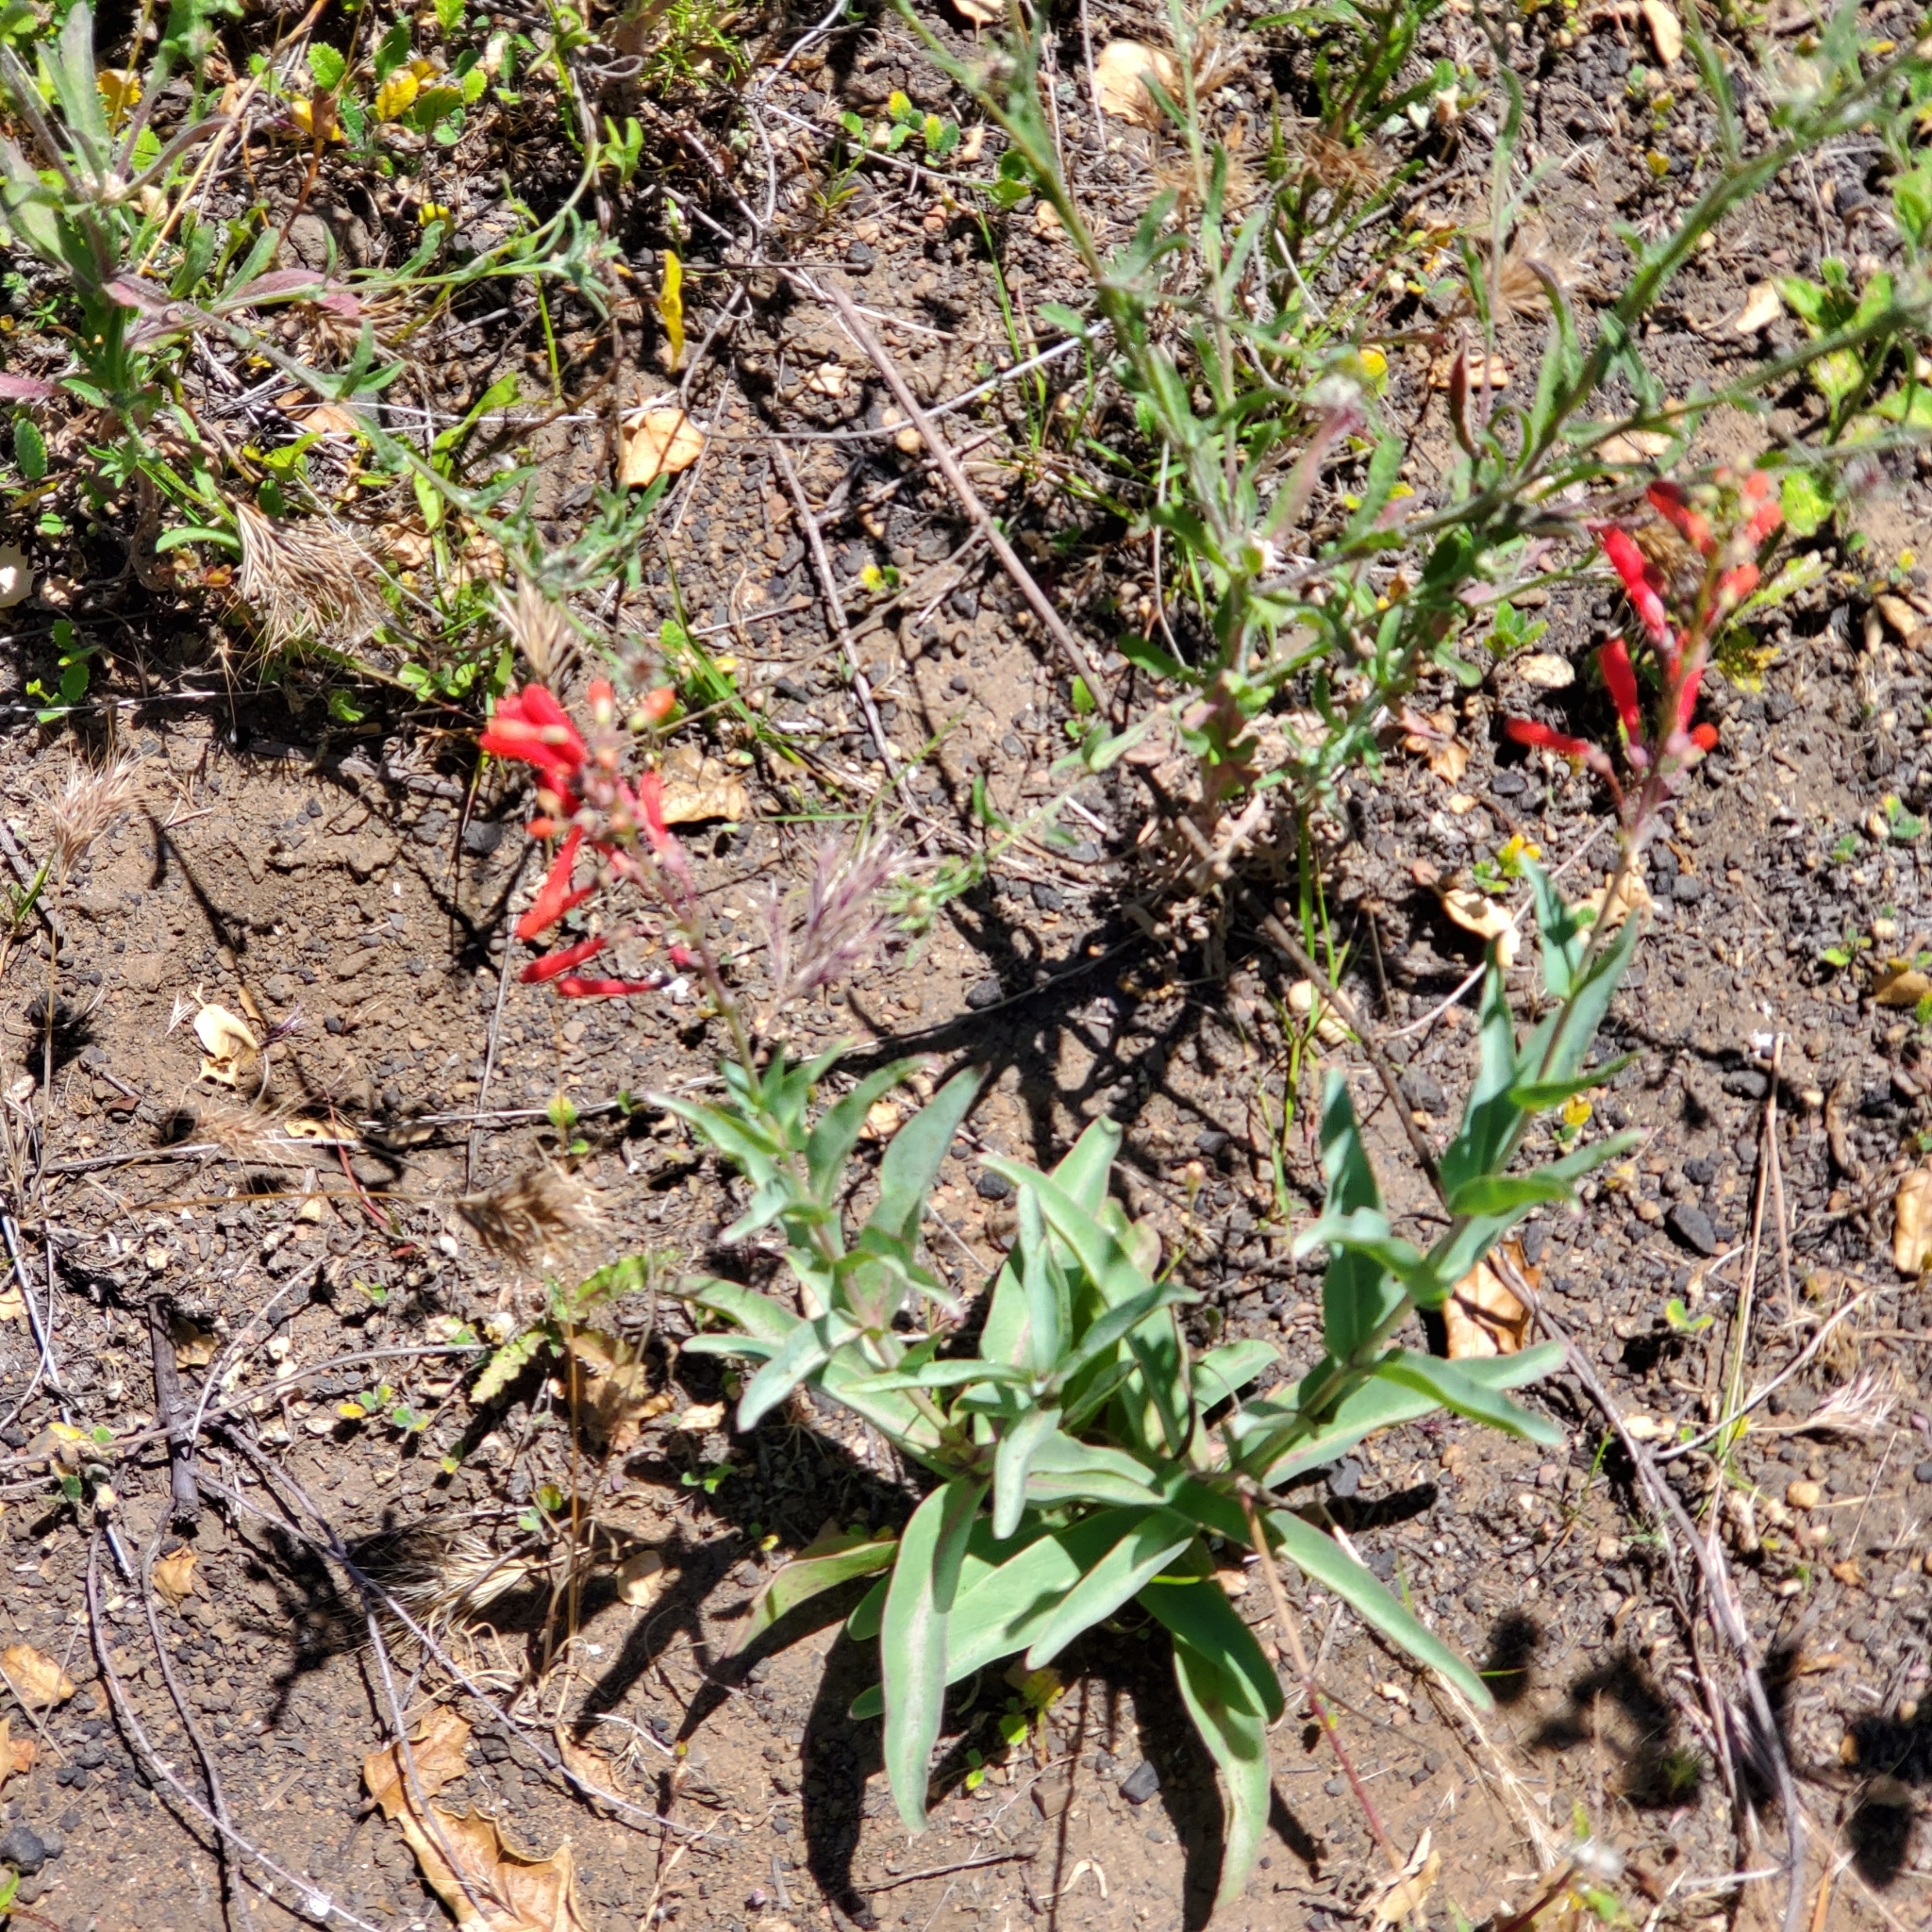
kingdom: Plantae
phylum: Tracheophyta
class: Magnoliopsida
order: Lamiales
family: Plantaginaceae
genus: Penstemon
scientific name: Penstemon centranthifolius
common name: Scarlet bugler
